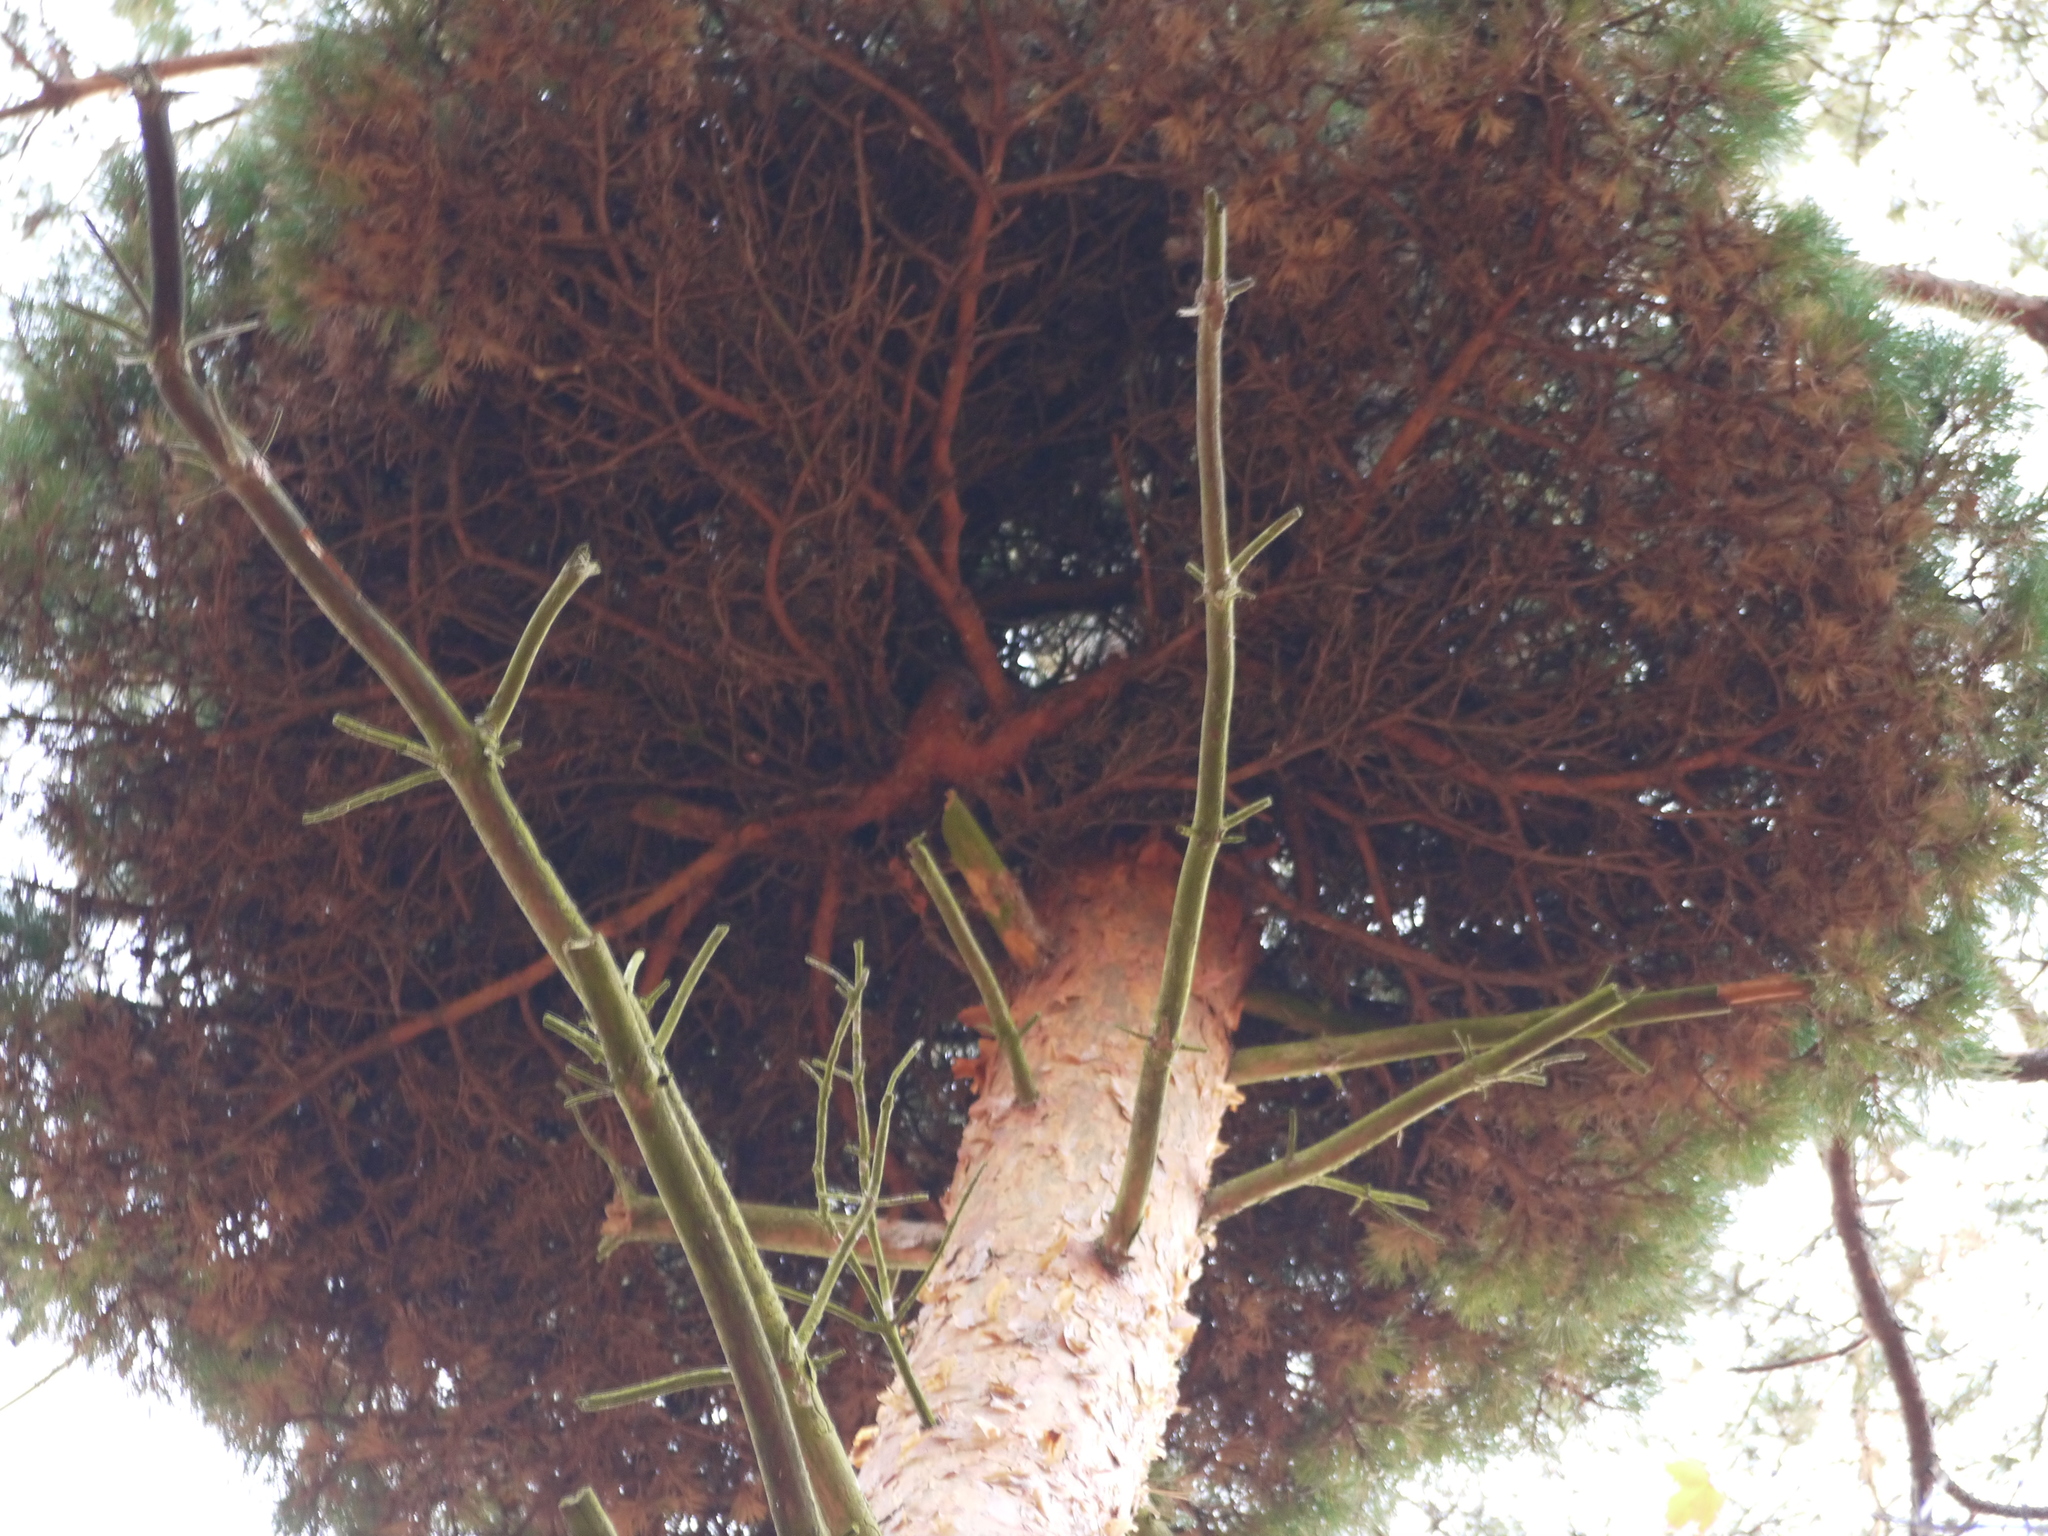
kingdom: Bacteria
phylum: Firmicutes
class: Bacilli
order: Acholeplasmatales
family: Acholeplasmataceae
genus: Phytoplasma
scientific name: Phytoplasma pini
